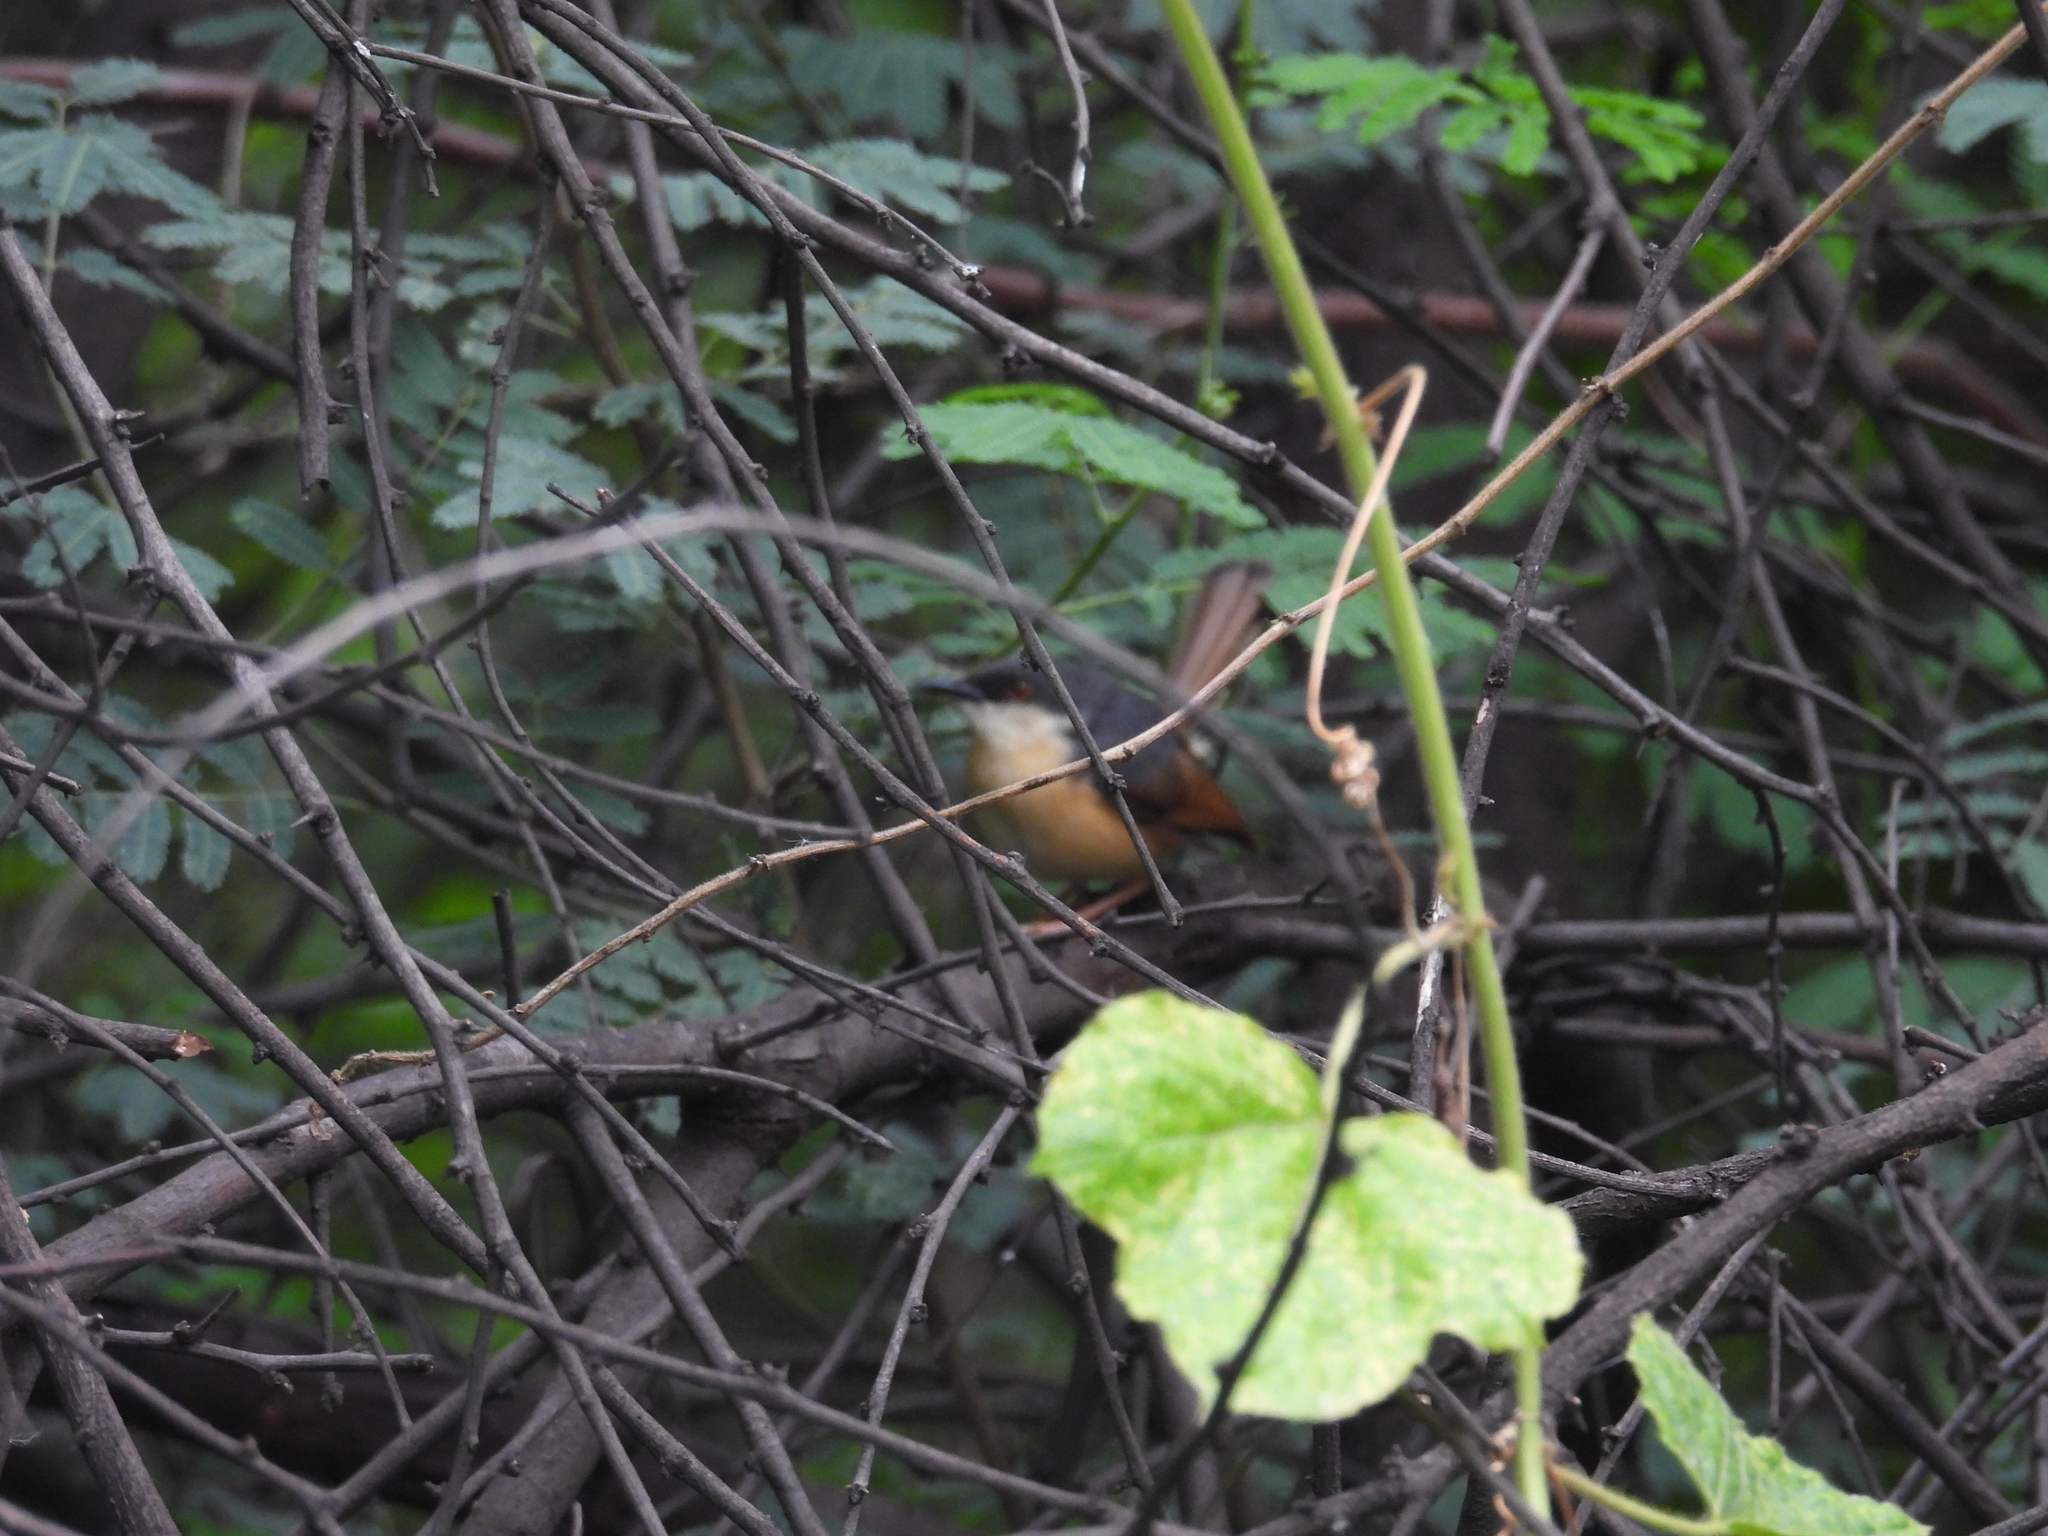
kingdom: Animalia
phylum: Chordata
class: Aves
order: Passeriformes
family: Cisticolidae
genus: Prinia
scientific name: Prinia socialis
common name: Ashy prinia
